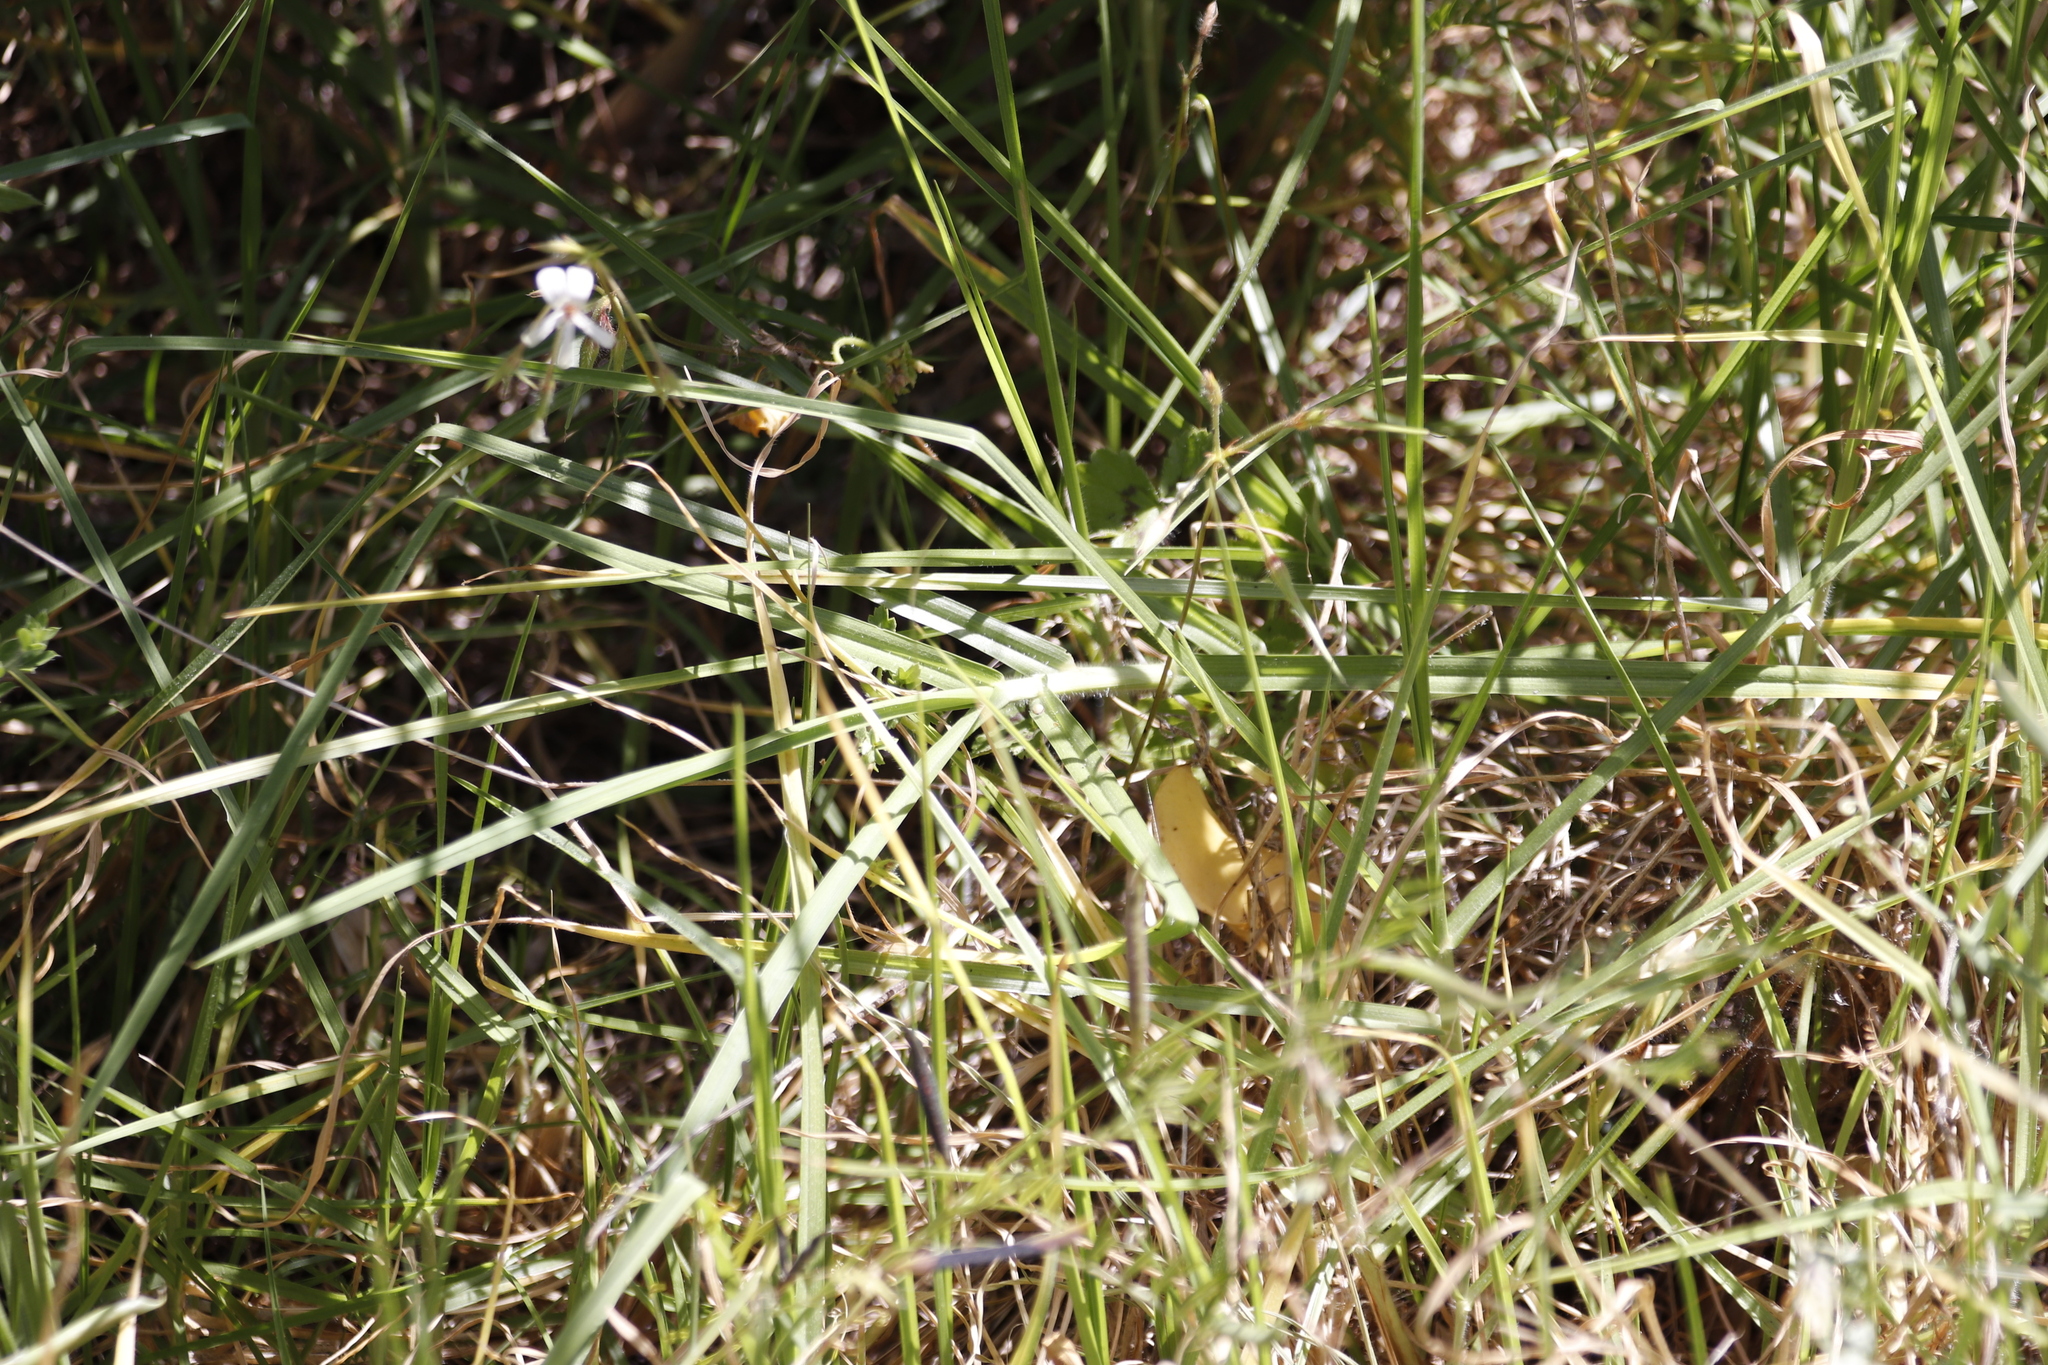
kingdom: Plantae
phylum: Tracheophyta
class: Magnoliopsida
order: Geraniales
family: Geraniaceae
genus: Pelargonium
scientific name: Pelargonium alchemilloides
